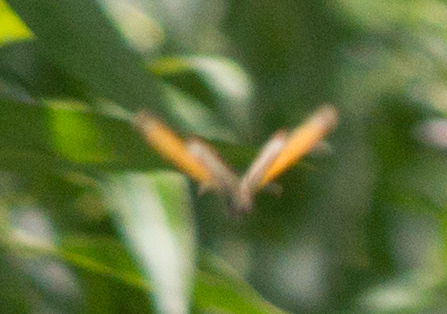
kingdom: Animalia
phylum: Arthropoda
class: Insecta
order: Lepidoptera
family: Nymphalidae
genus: Coenonympha
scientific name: Coenonympha arcania
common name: Pearly heath
